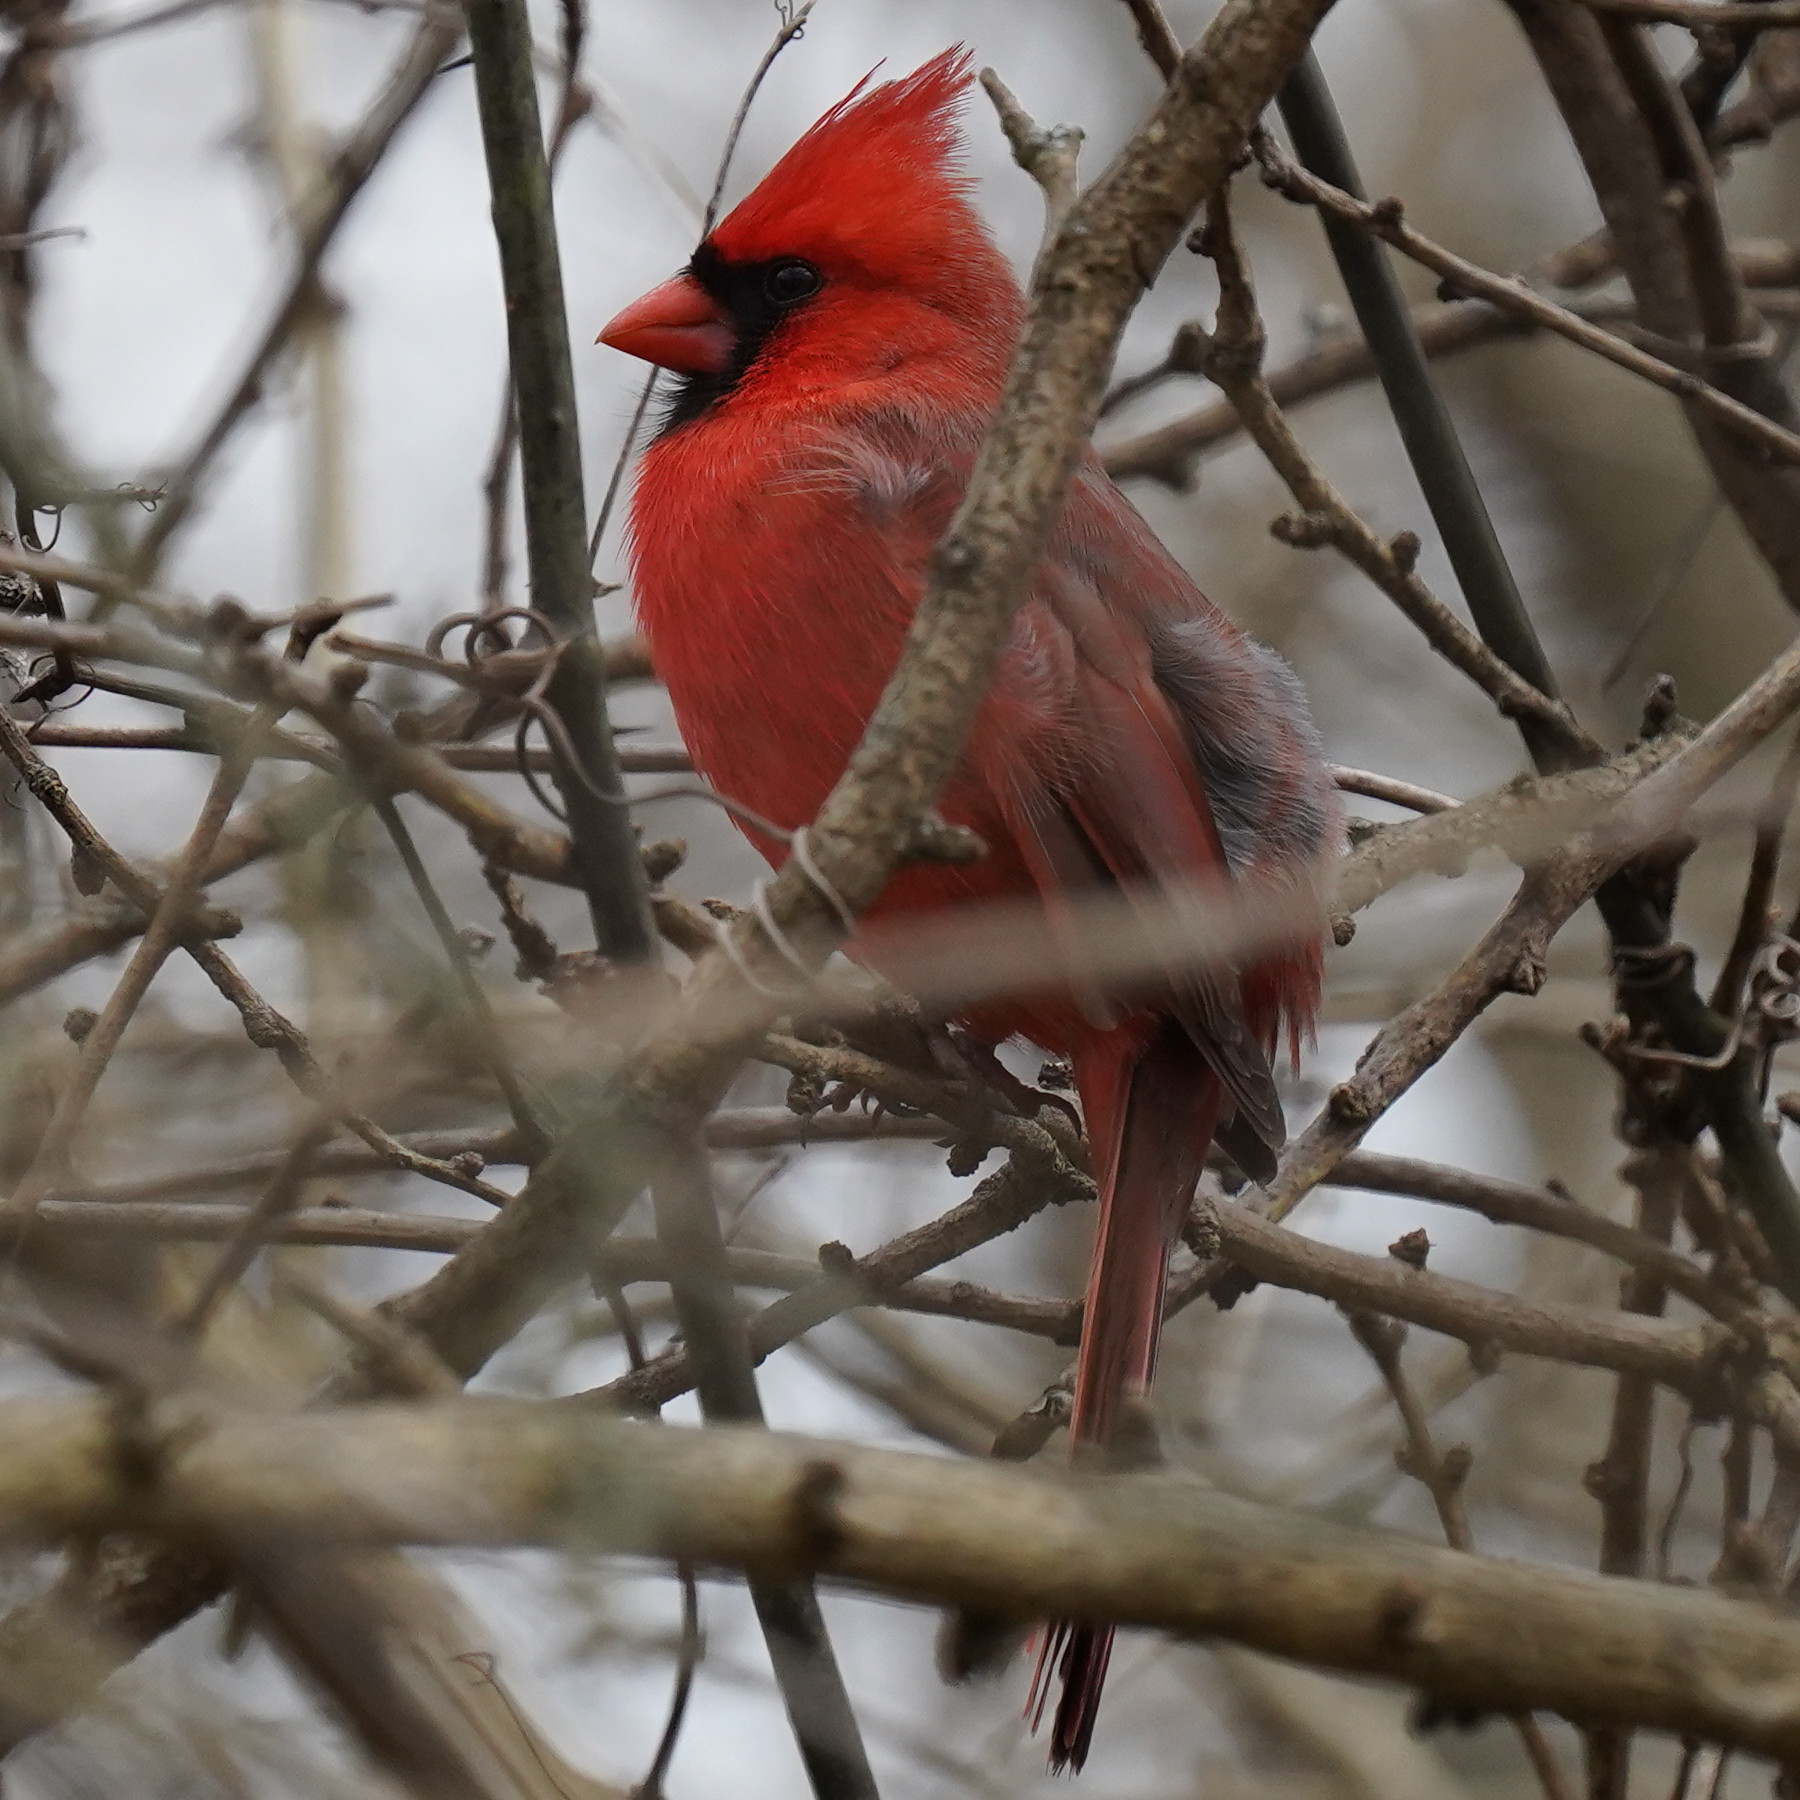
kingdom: Animalia
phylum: Chordata
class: Aves
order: Passeriformes
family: Cardinalidae
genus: Cardinalis
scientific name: Cardinalis cardinalis
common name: Northern cardinal
